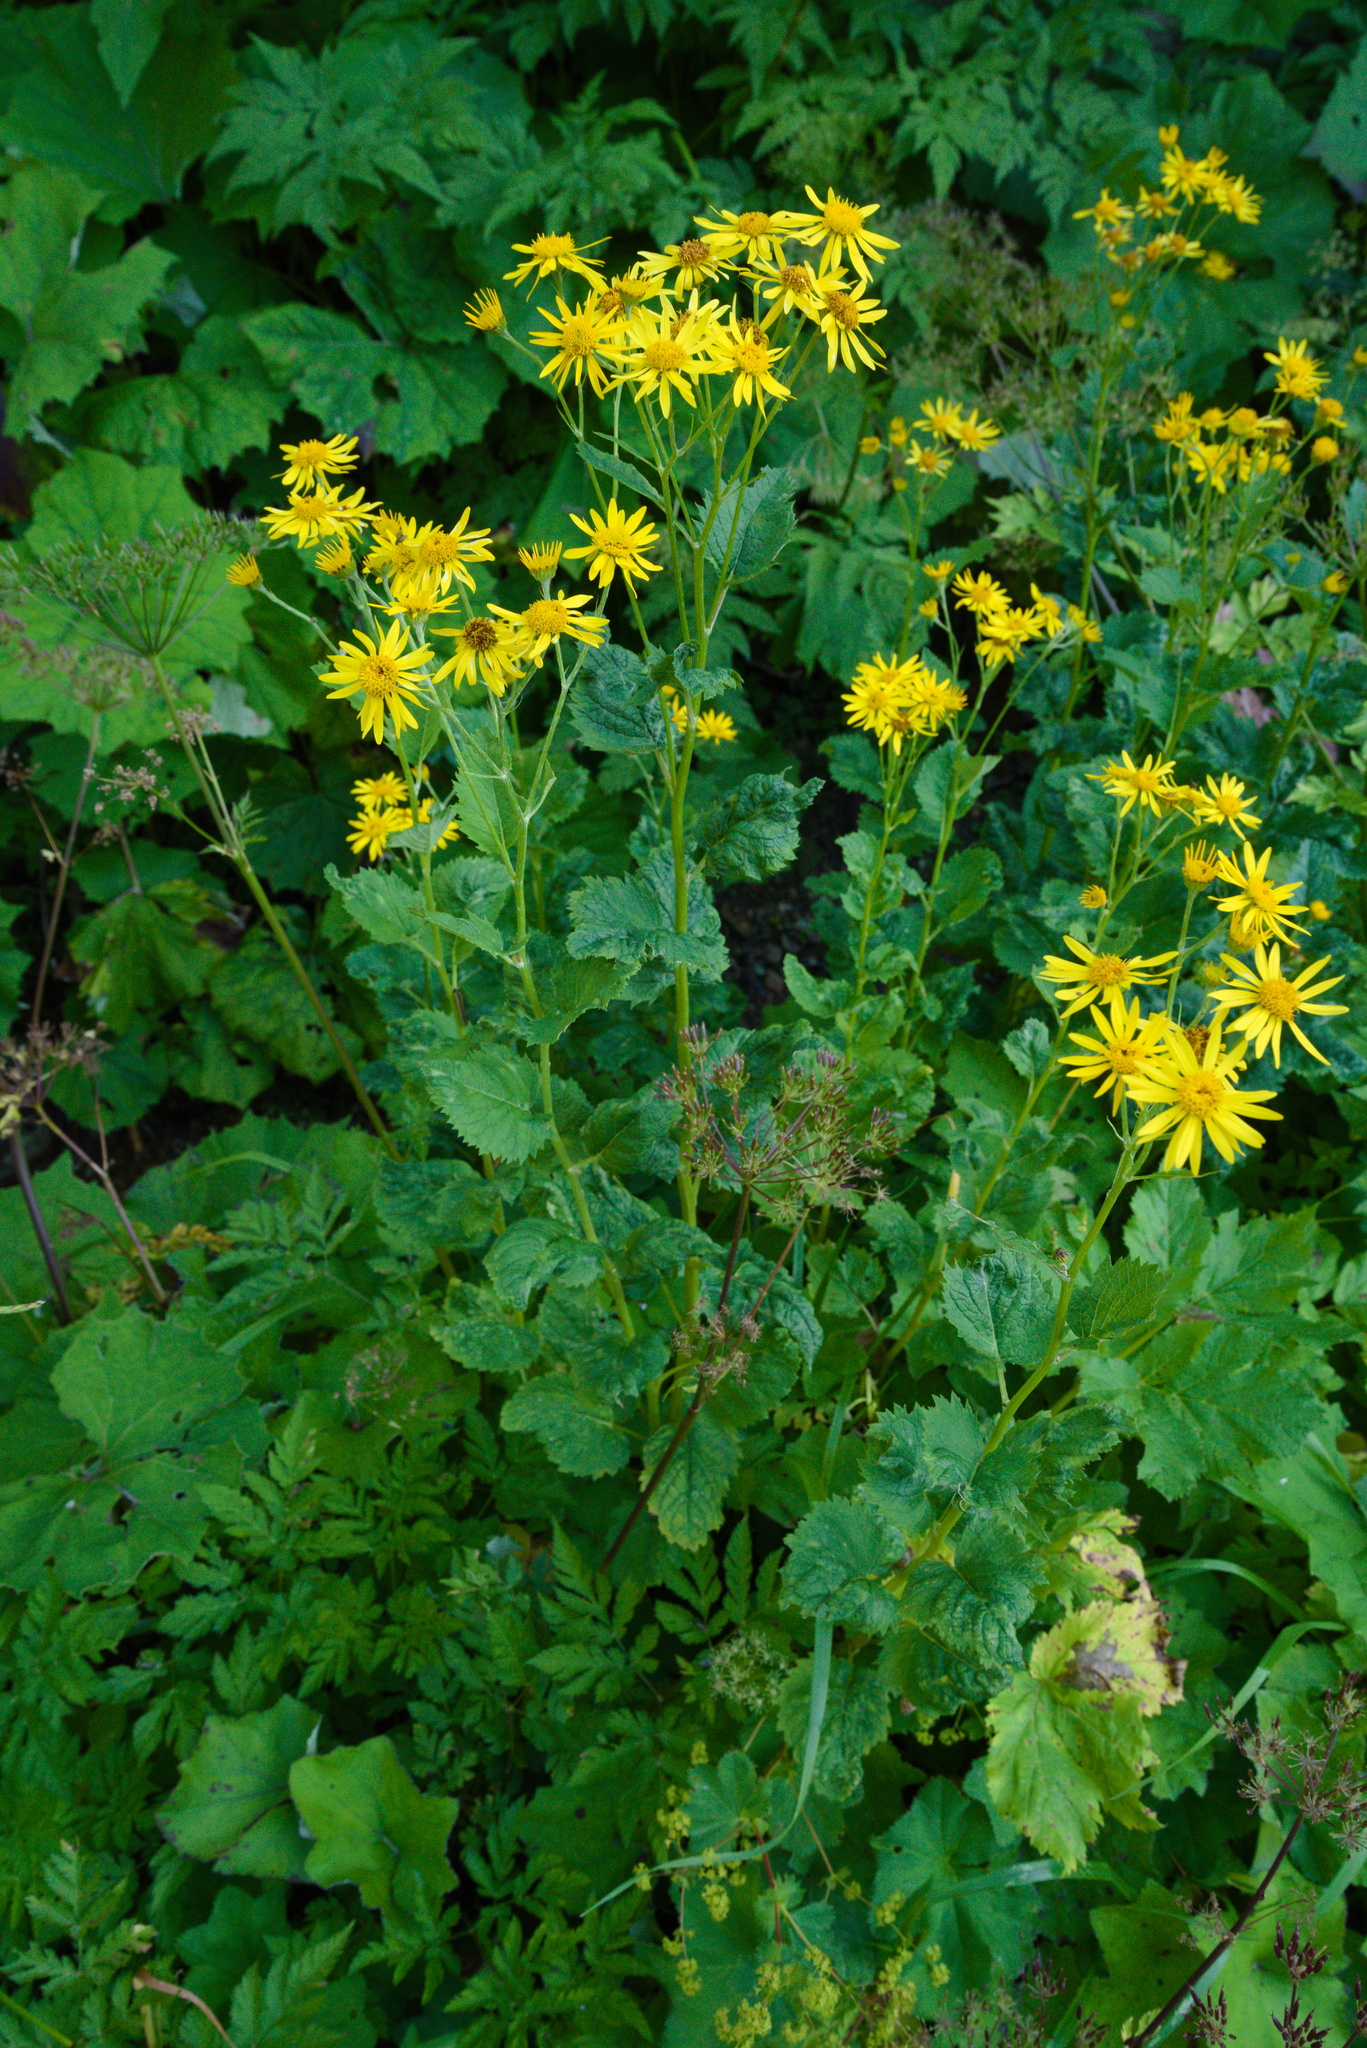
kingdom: Plantae
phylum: Tracheophyta
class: Magnoliopsida
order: Asterales
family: Asteraceae
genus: Jacobaea
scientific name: Jacobaea alpina
